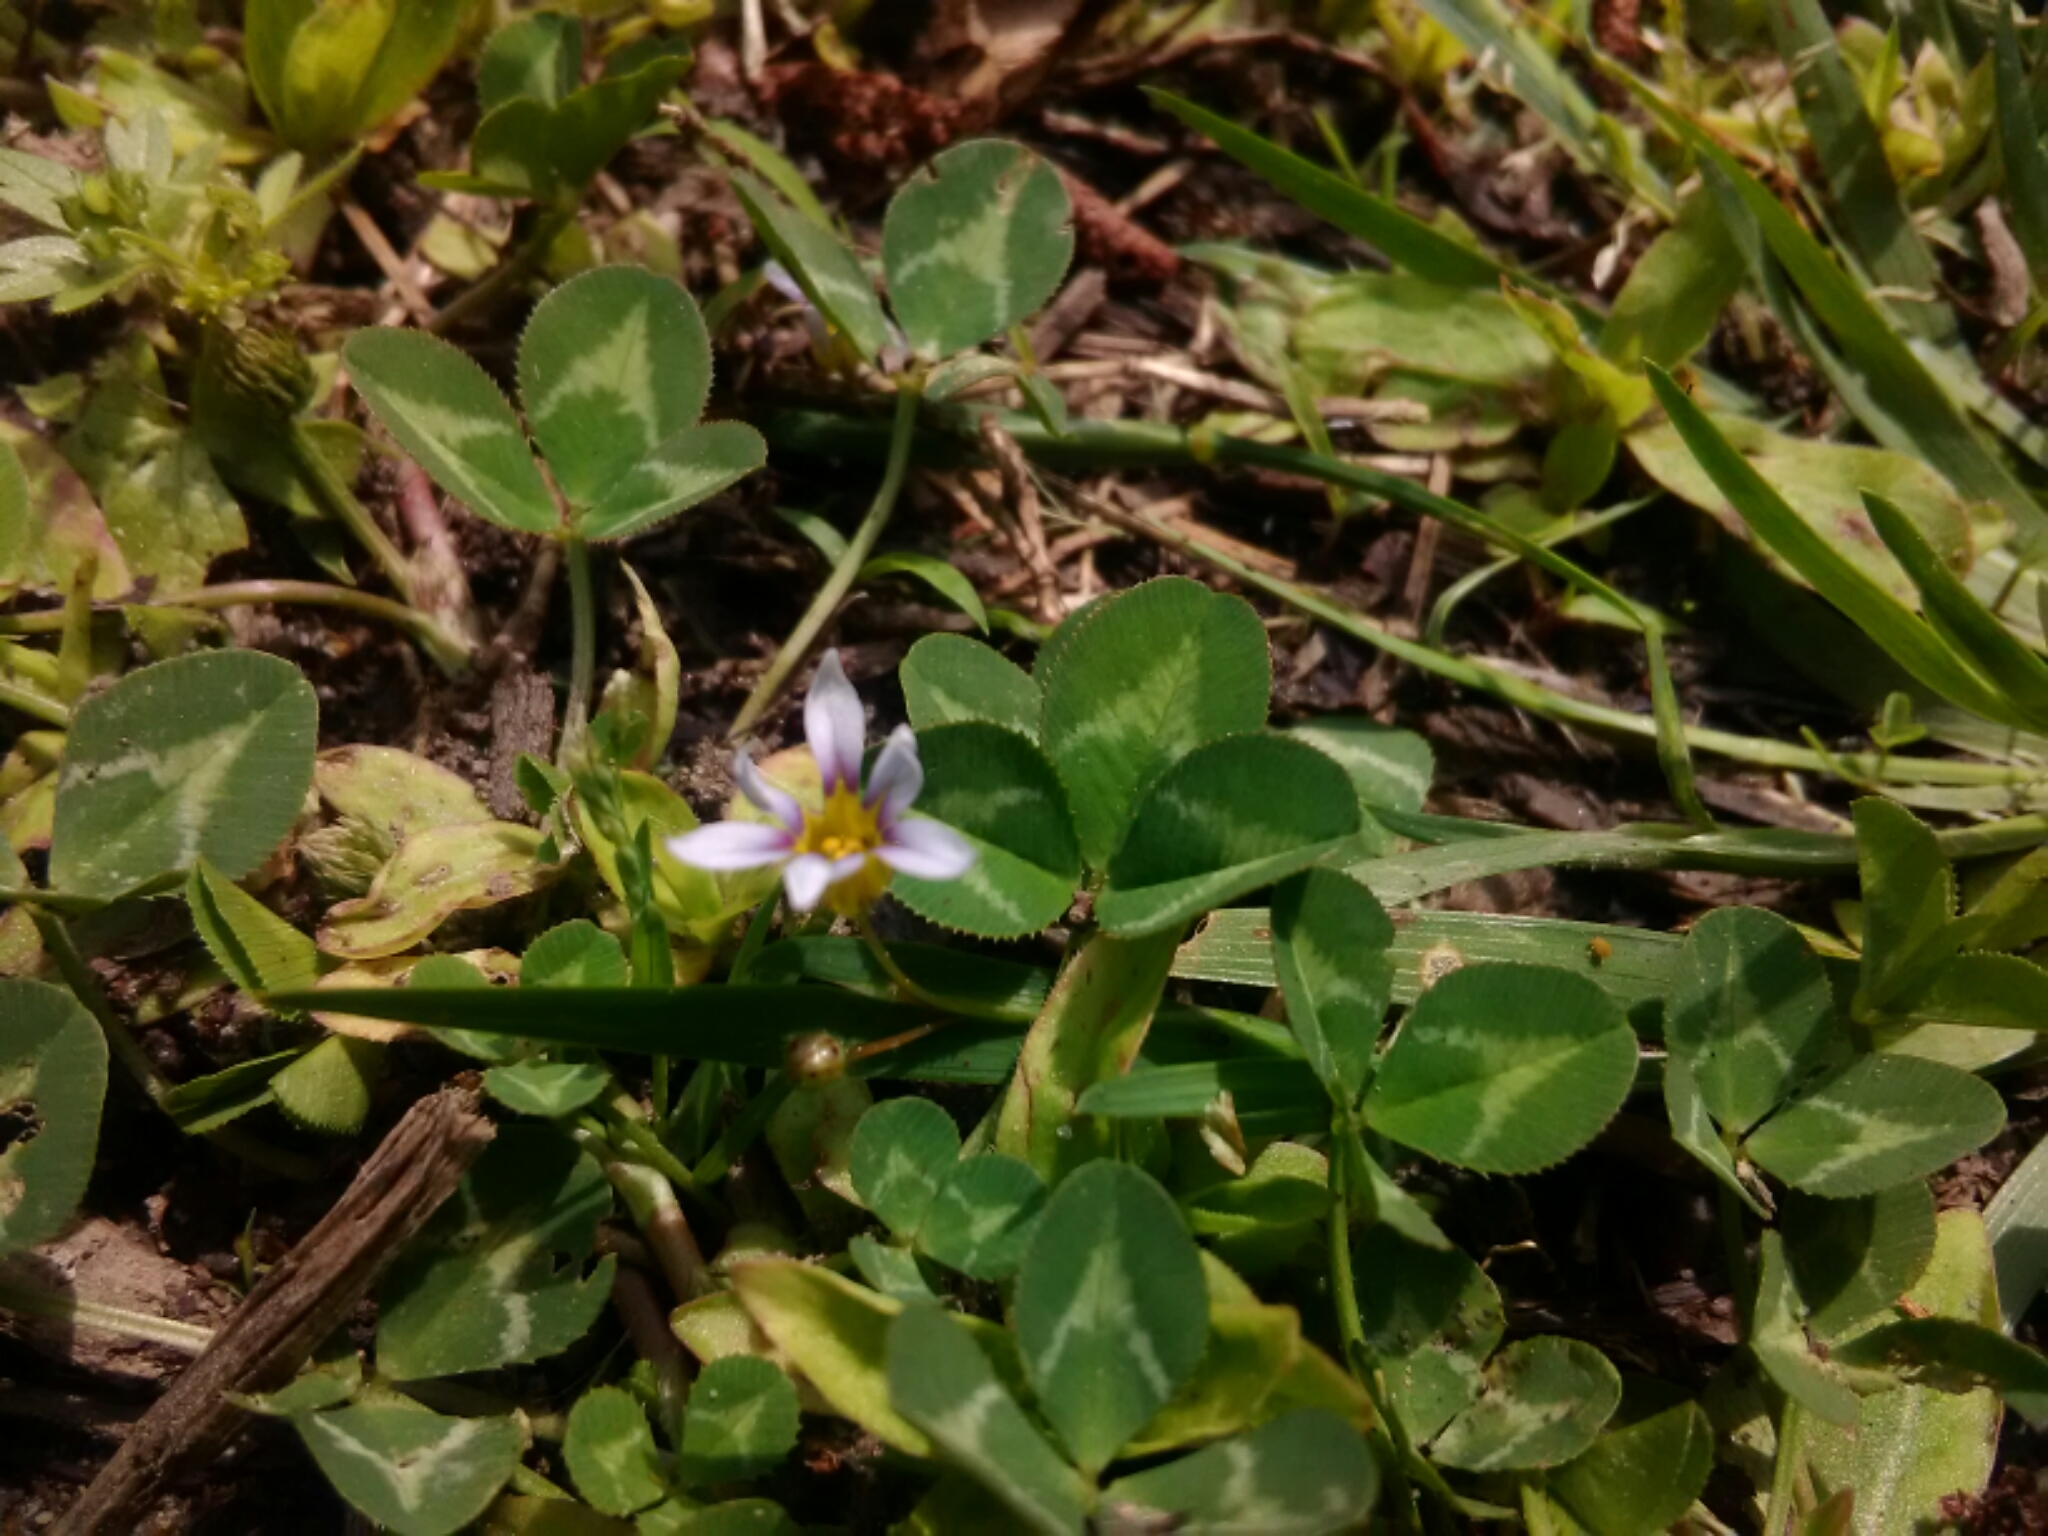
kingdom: Plantae
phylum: Tracheophyta
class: Liliopsida
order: Asparagales
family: Iridaceae
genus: Sisyrinchium
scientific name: Sisyrinchium micranthum
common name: Bermuda pigroot
